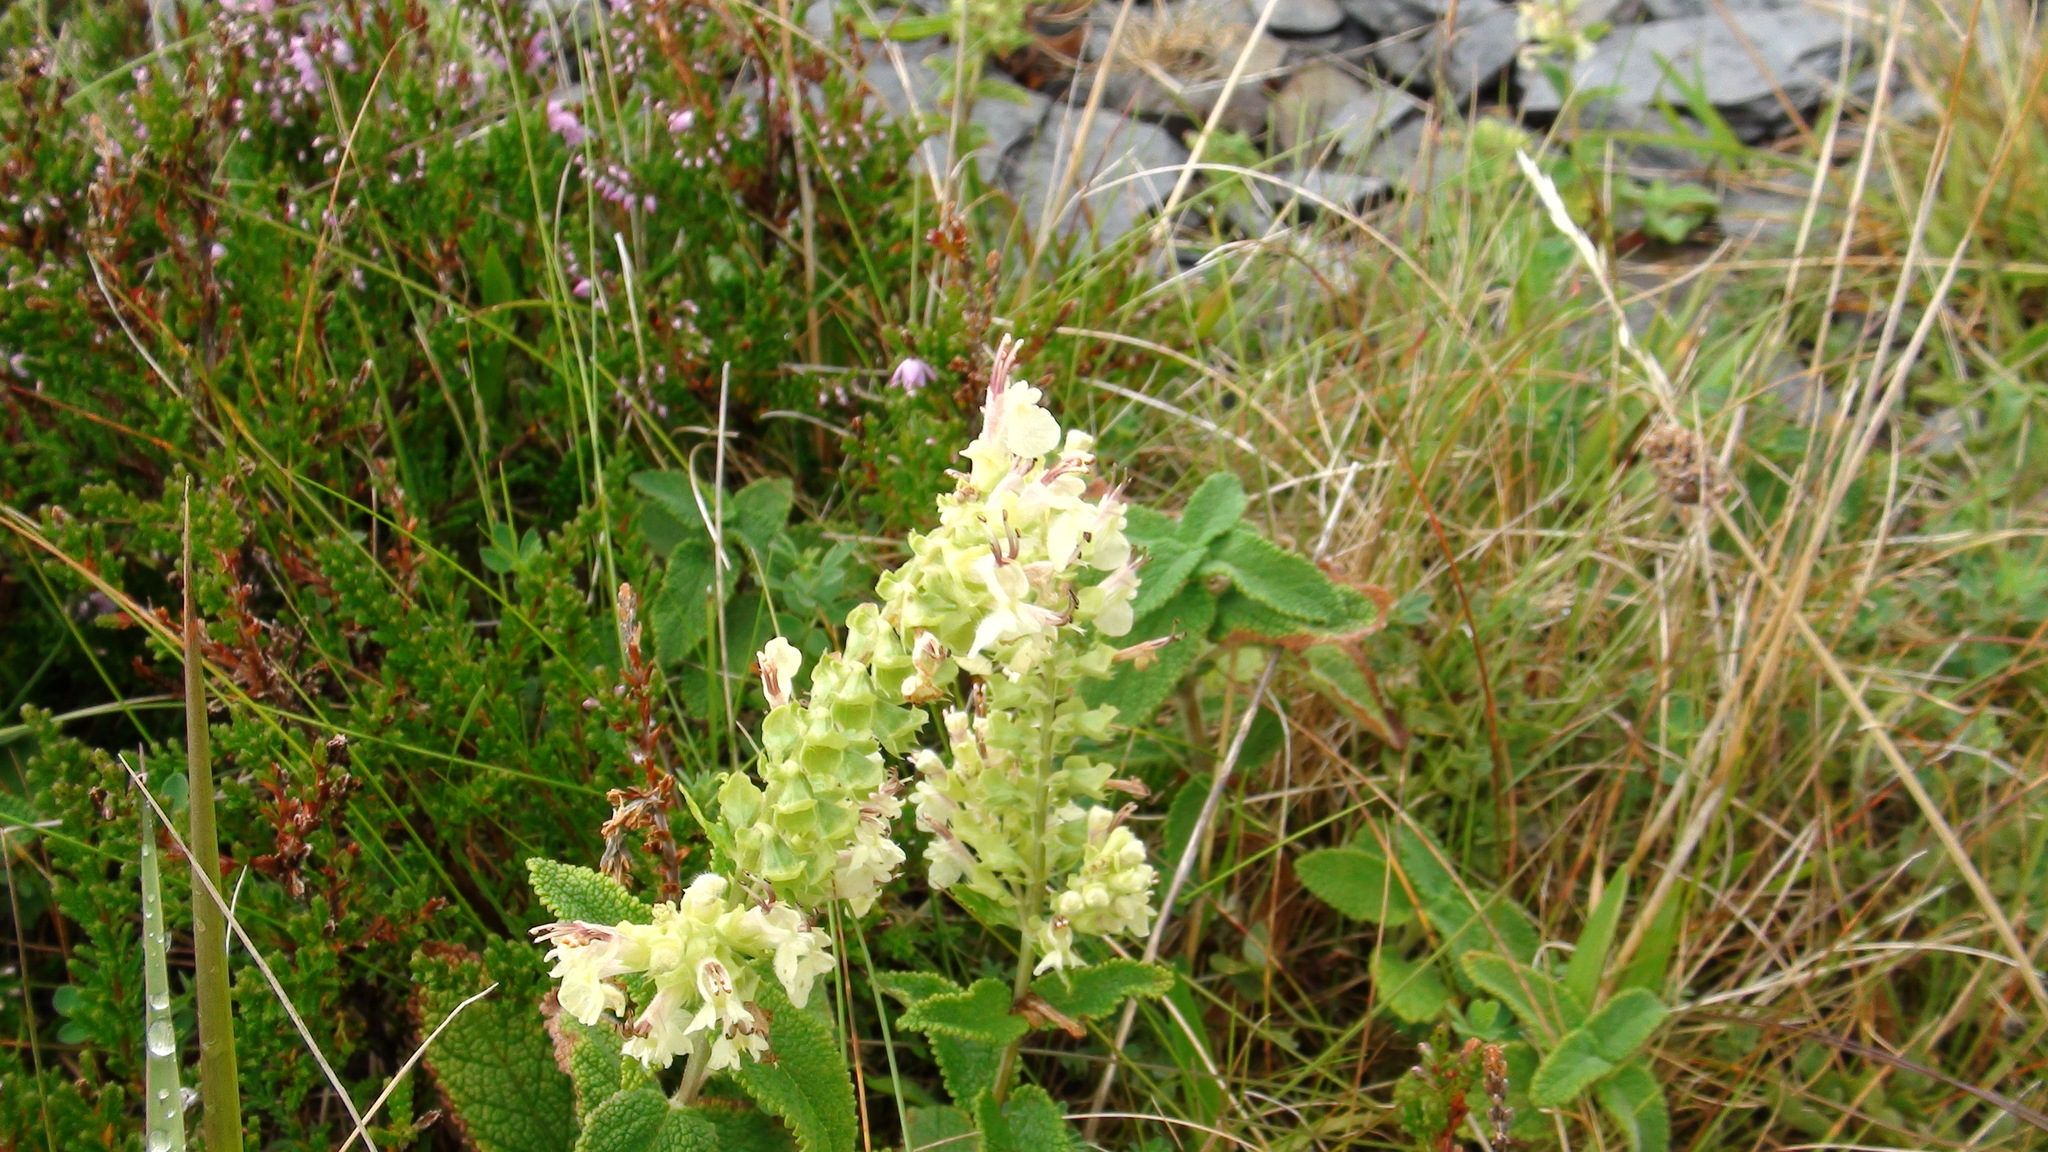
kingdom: Plantae
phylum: Tracheophyta
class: Magnoliopsida
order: Lamiales
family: Lamiaceae
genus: Teucrium
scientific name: Teucrium scorodonia
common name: Woodland germander
